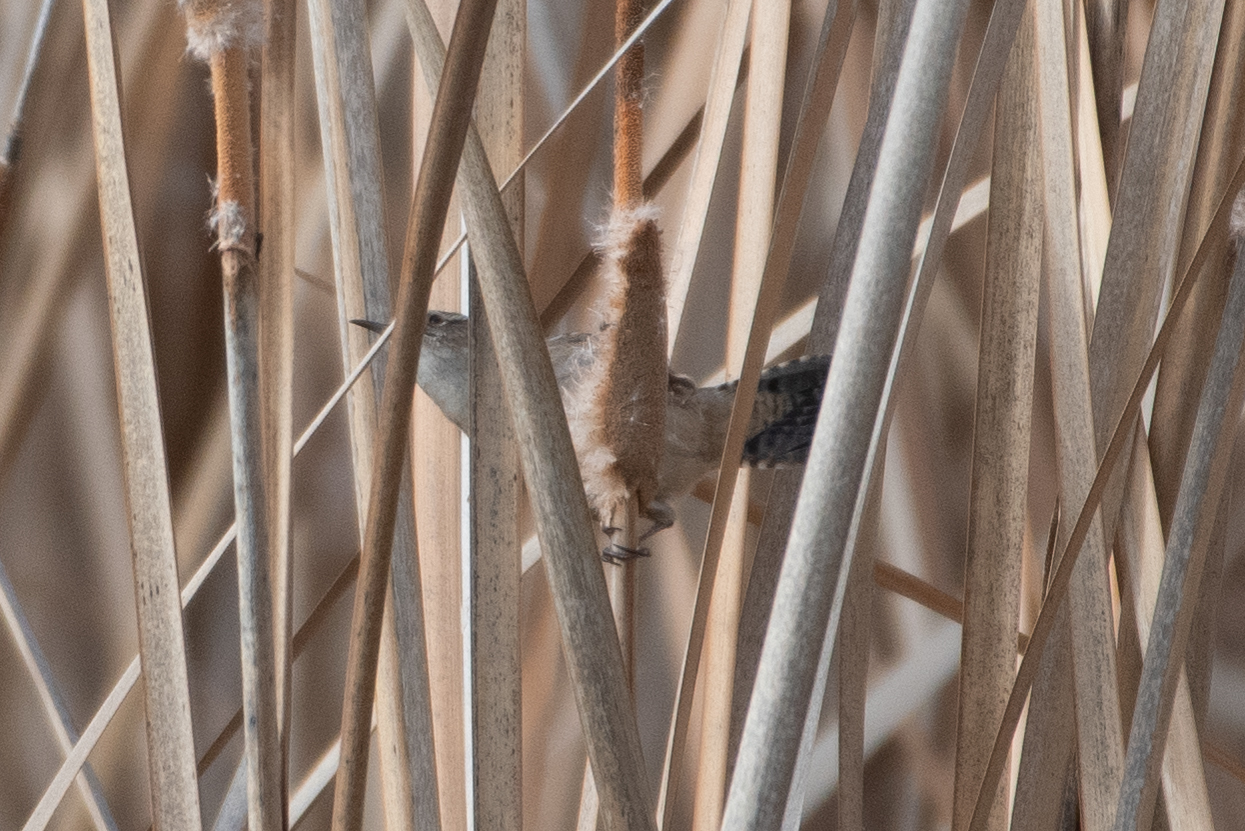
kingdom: Animalia
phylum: Chordata
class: Aves
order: Passeriformes
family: Troglodytidae
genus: Cistothorus
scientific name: Cistothorus palustris
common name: Marsh wren
